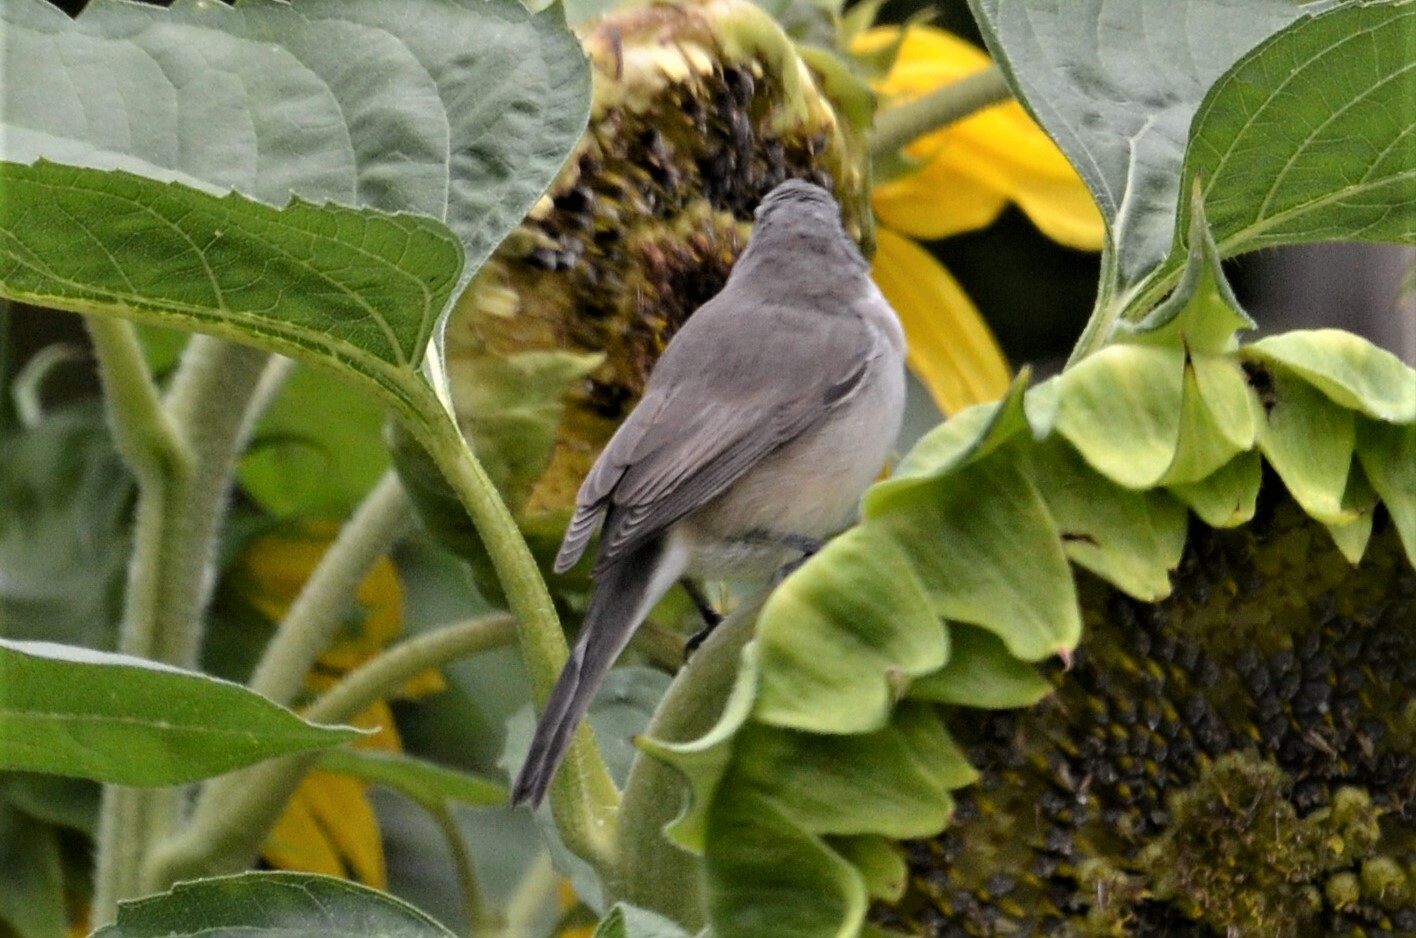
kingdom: Animalia
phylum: Chordata
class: Aves
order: Passeriformes
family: Sylviidae
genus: Sylvia
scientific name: Sylvia curruca
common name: Lesser whitethroat
